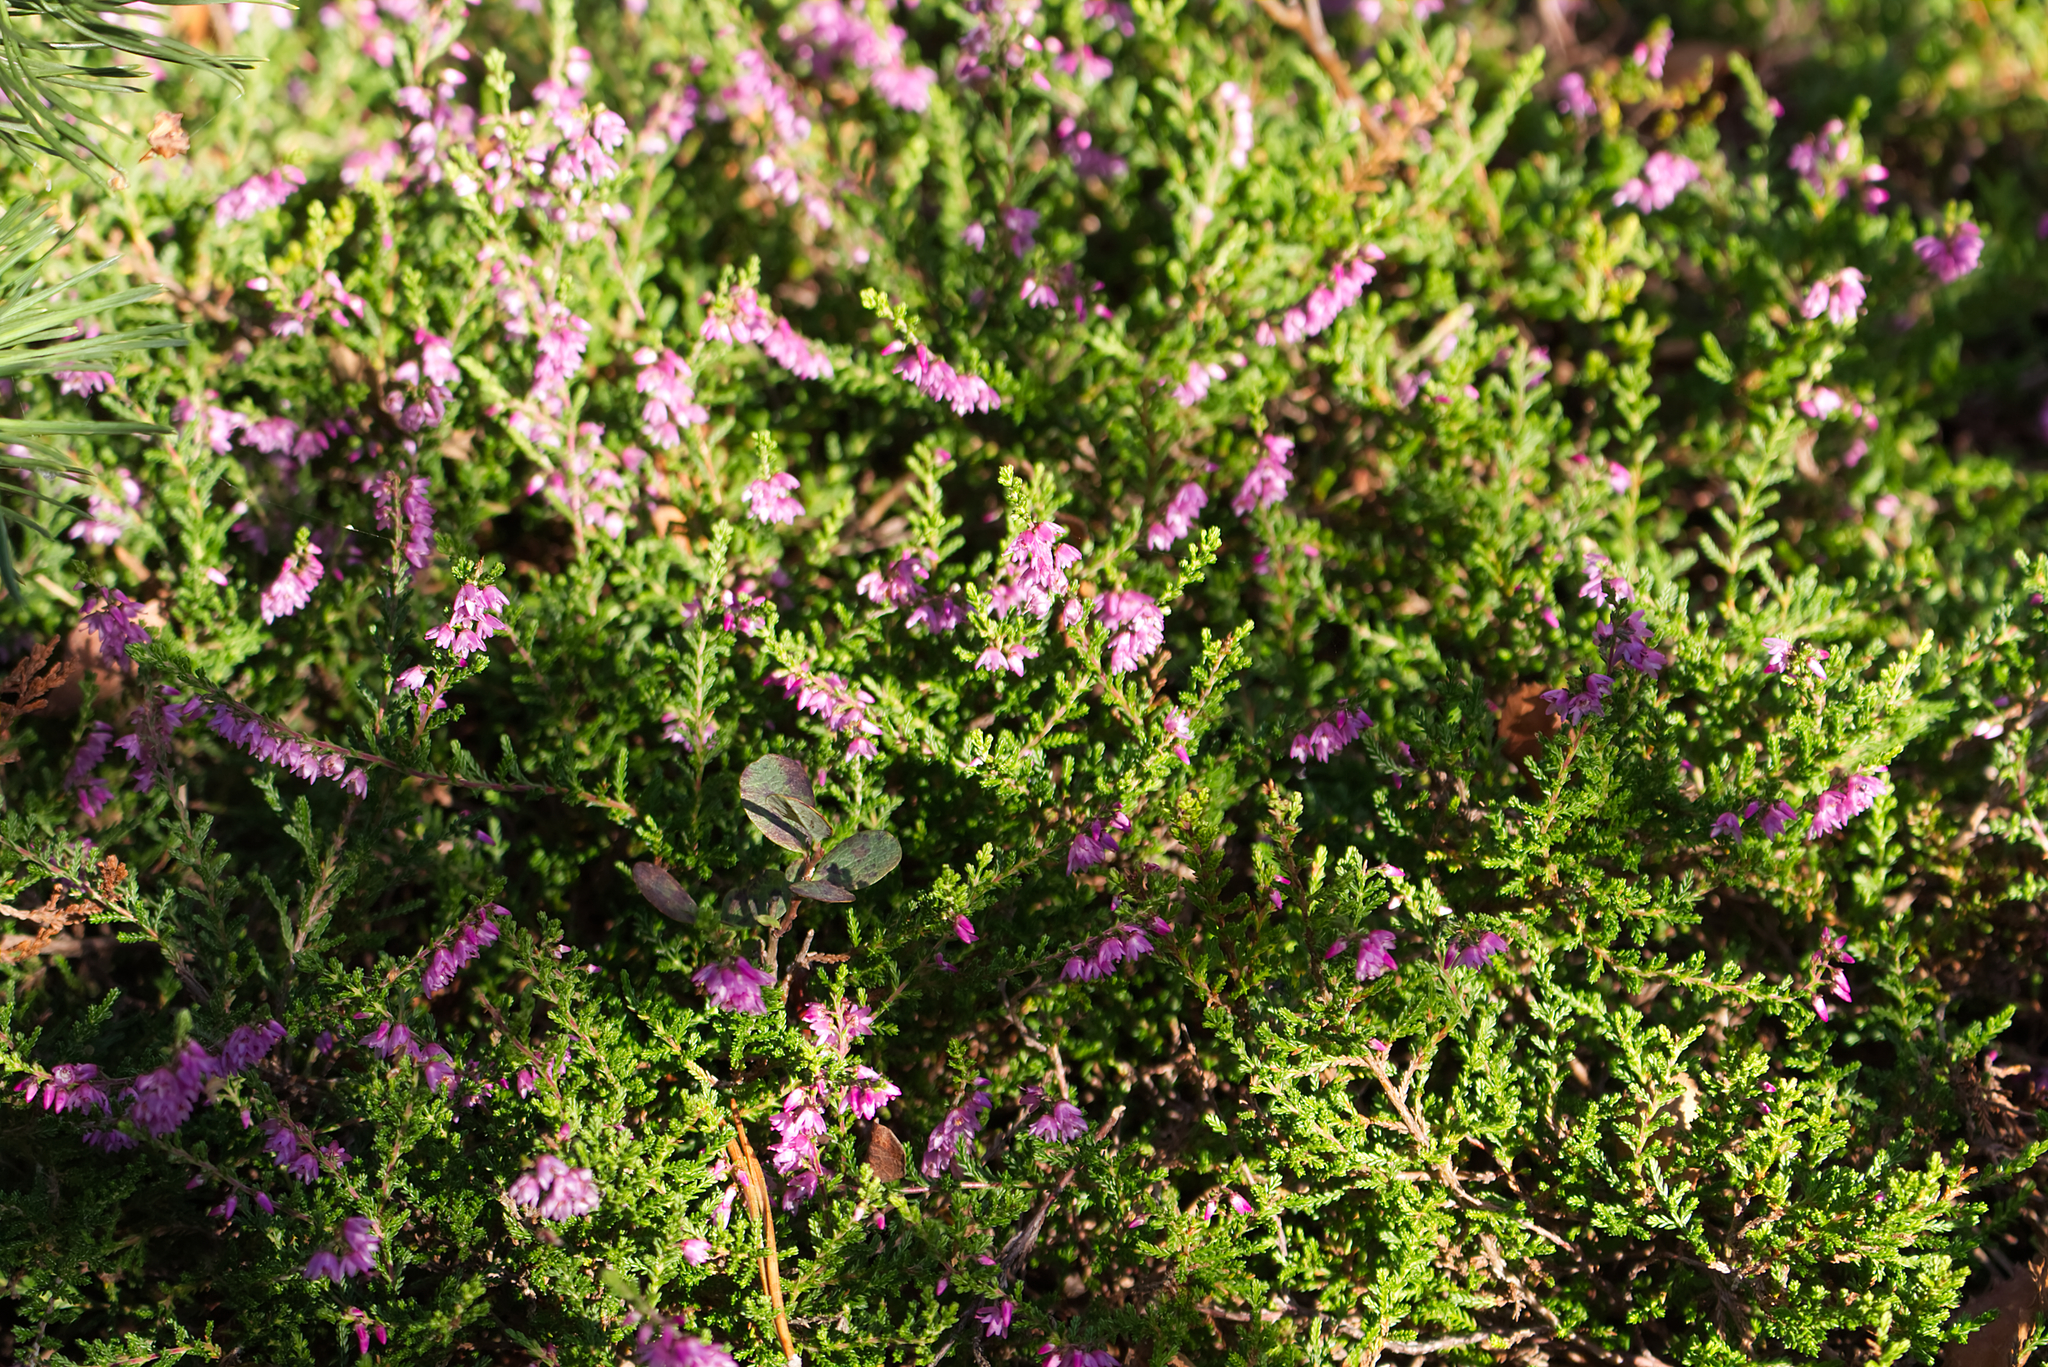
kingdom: Plantae
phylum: Tracheophyta
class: Magnoliopsida
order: Ericales
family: Ericaceae
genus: Calluna
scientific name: Calluna vulgaris
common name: Heather
